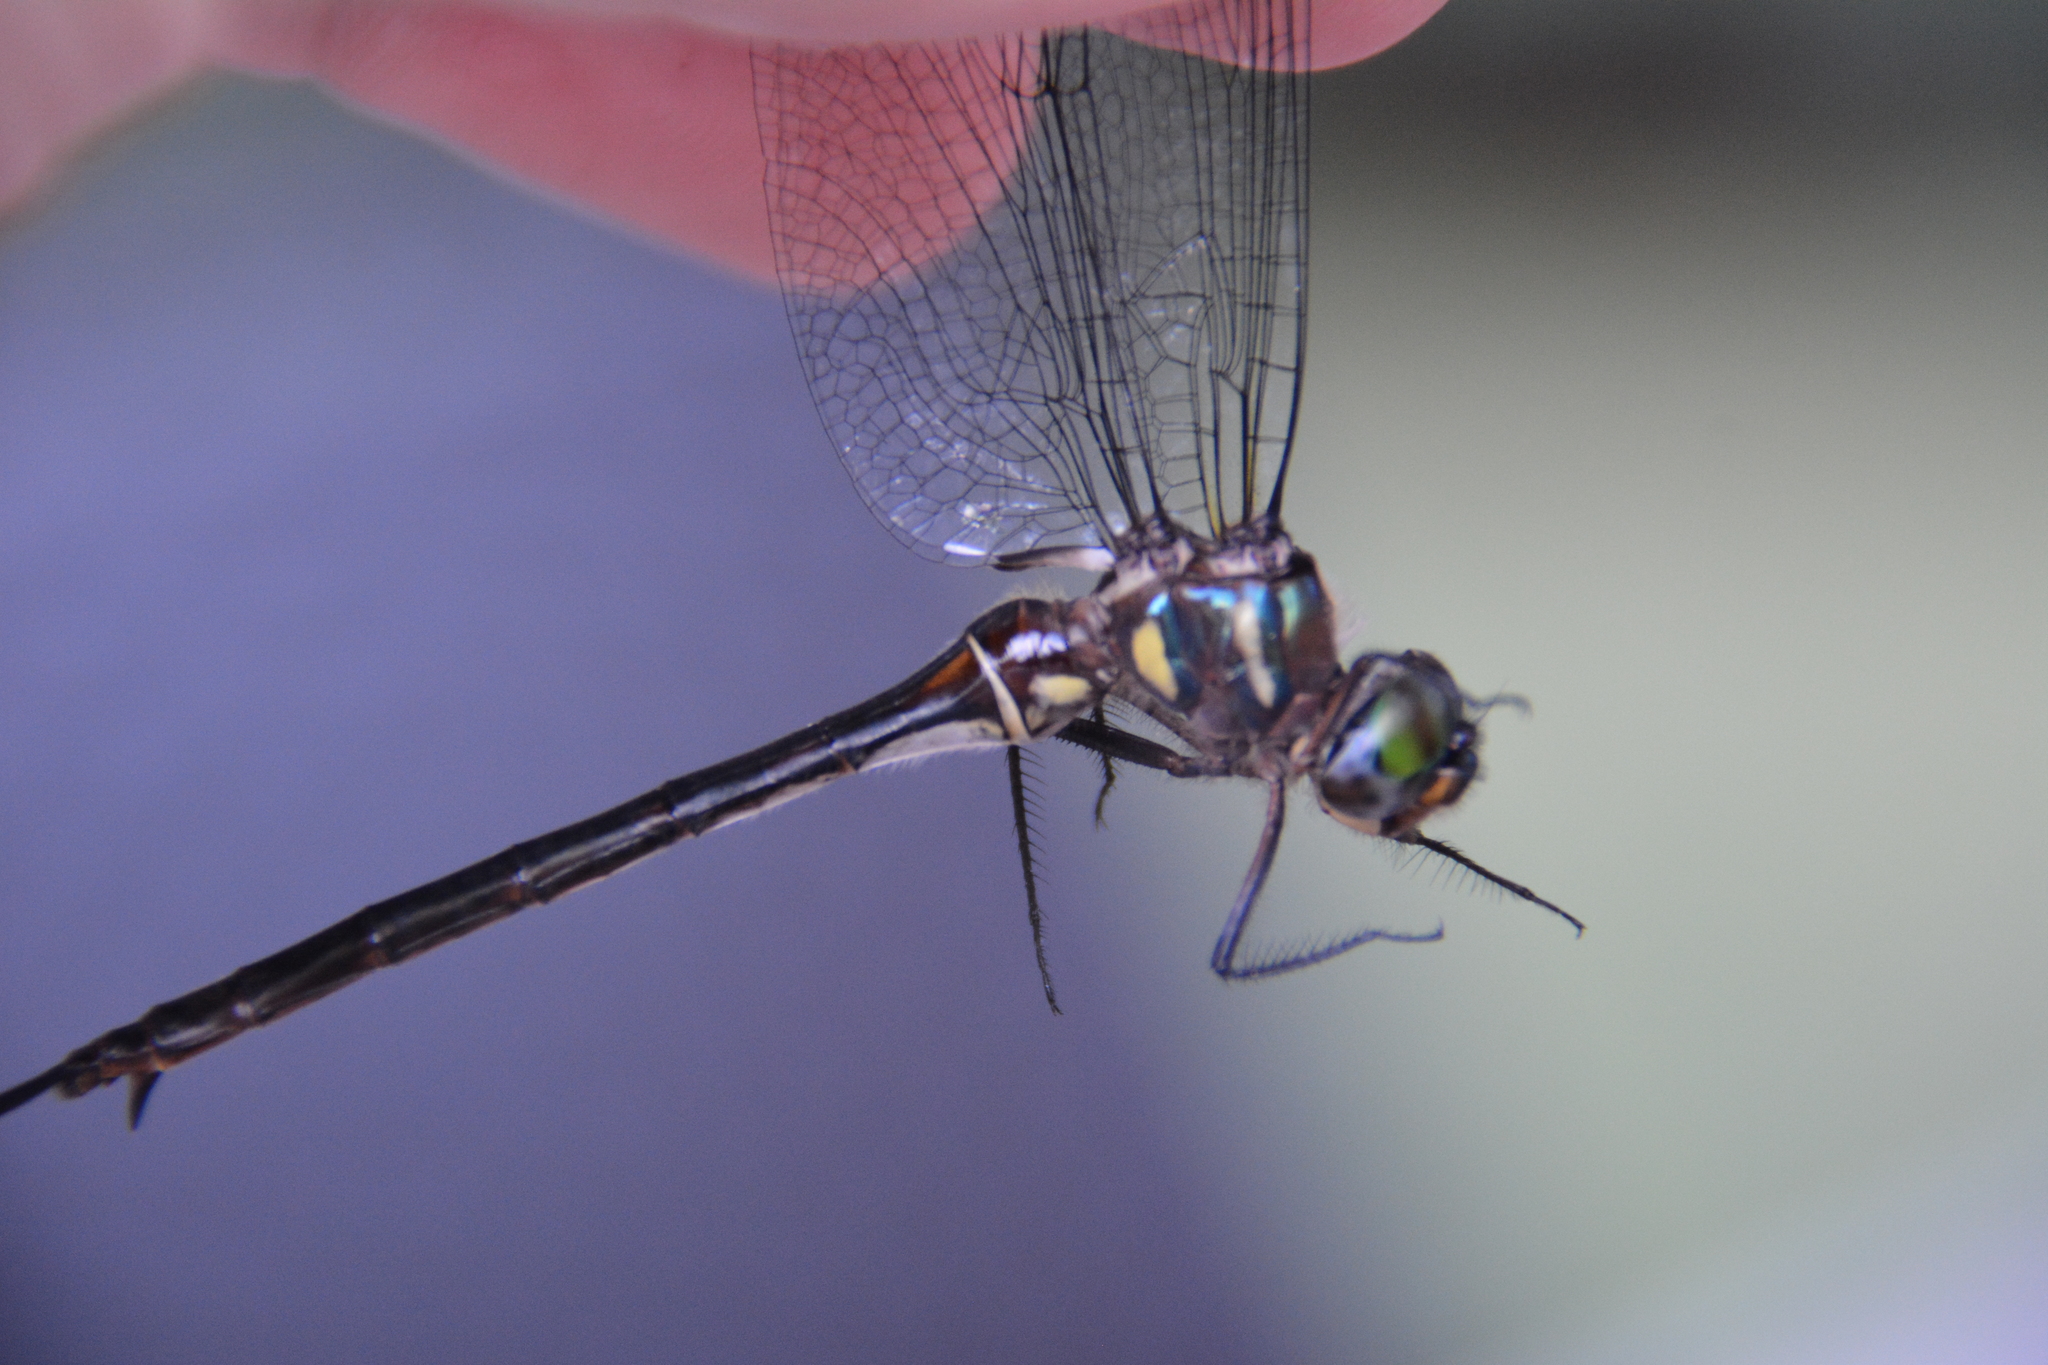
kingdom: Animalia
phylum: Arthropoda
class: Insecta
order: Odonata
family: Corduliidae
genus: Somatochlora
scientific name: Somatochlora tenebrosa
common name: Clamp-tipped emerald
